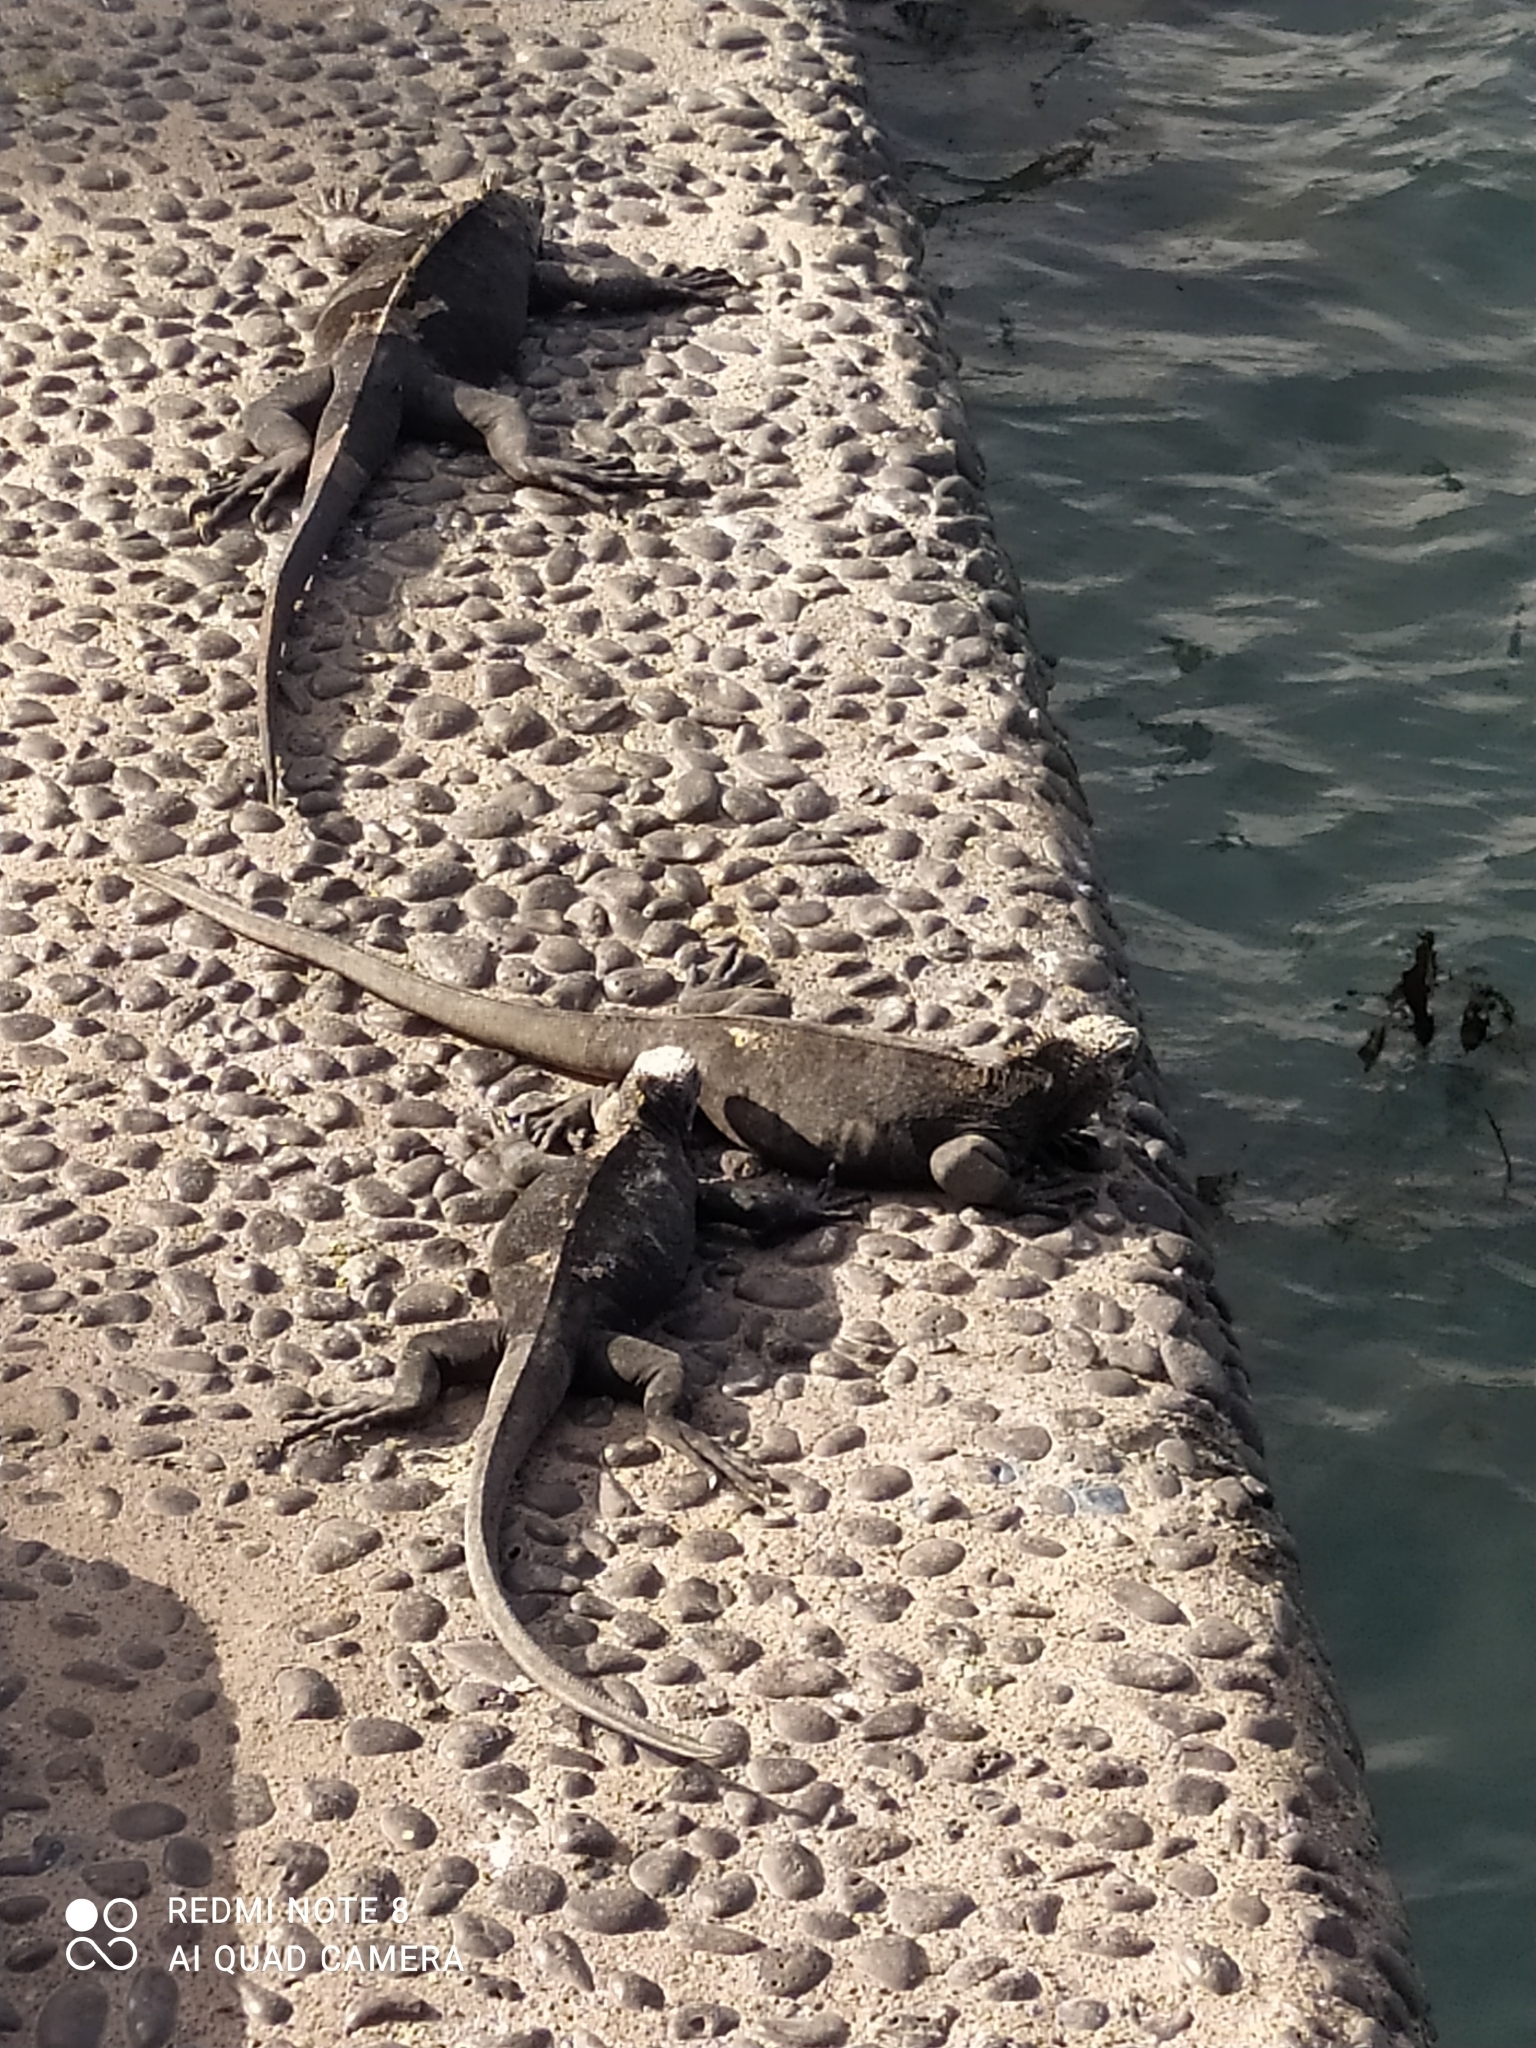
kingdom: Animalia
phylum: Chordata
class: Squamata
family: Iguanidae
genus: Amblyrhynchus
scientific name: Amblyrhynchus cristatus
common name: Marine iguana
